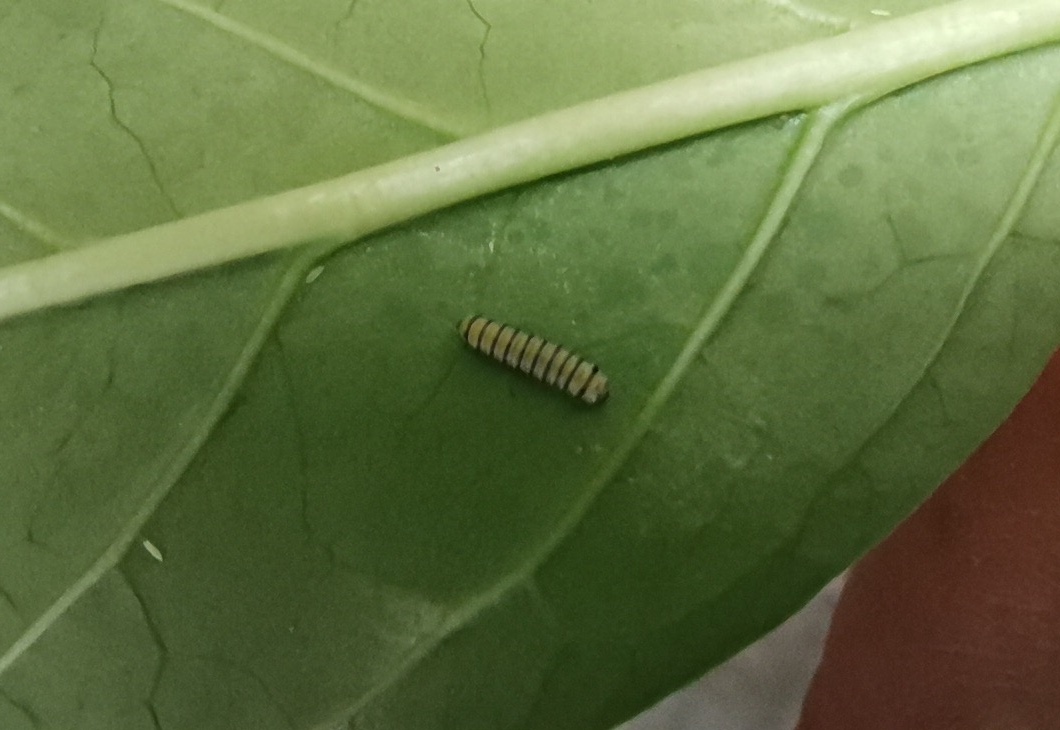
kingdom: Animalia
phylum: Arthropoda
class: Insecta
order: Lepidoptera
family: Nymphalidae
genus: Danaus
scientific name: Danaus plexippus
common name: Monarch
